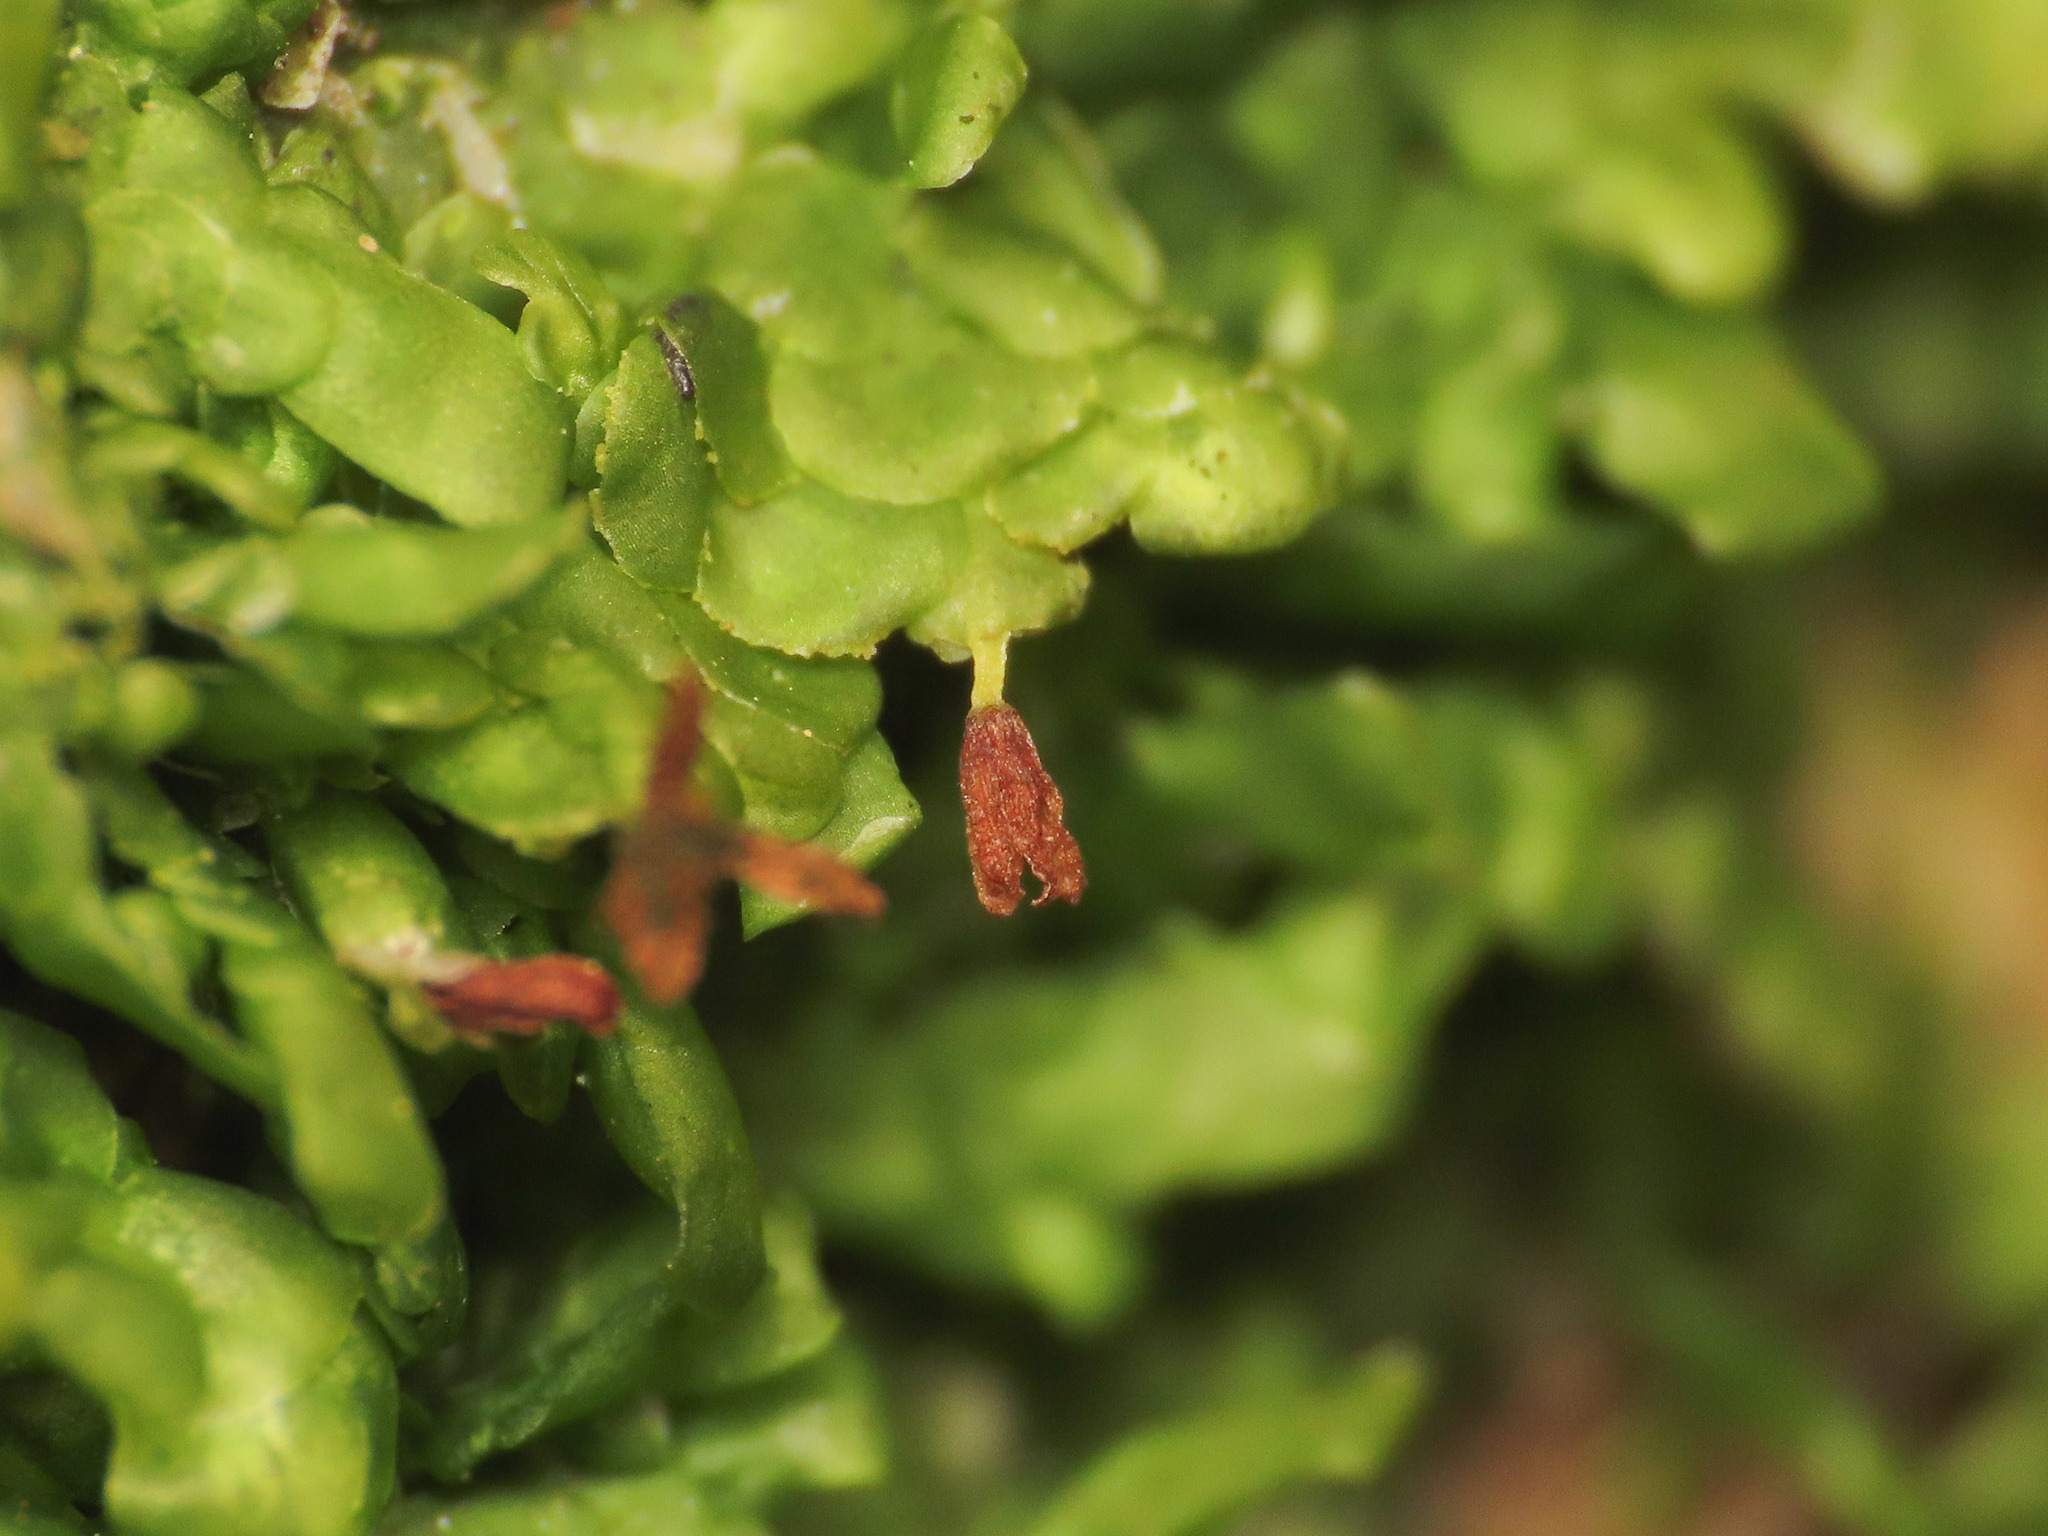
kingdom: Plantae
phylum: Marchantiophyta
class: Jungermanniopsida
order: Porellales
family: Radulaceae
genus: Radula
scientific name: Radula complanata
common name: Flat-leaved scalewort
